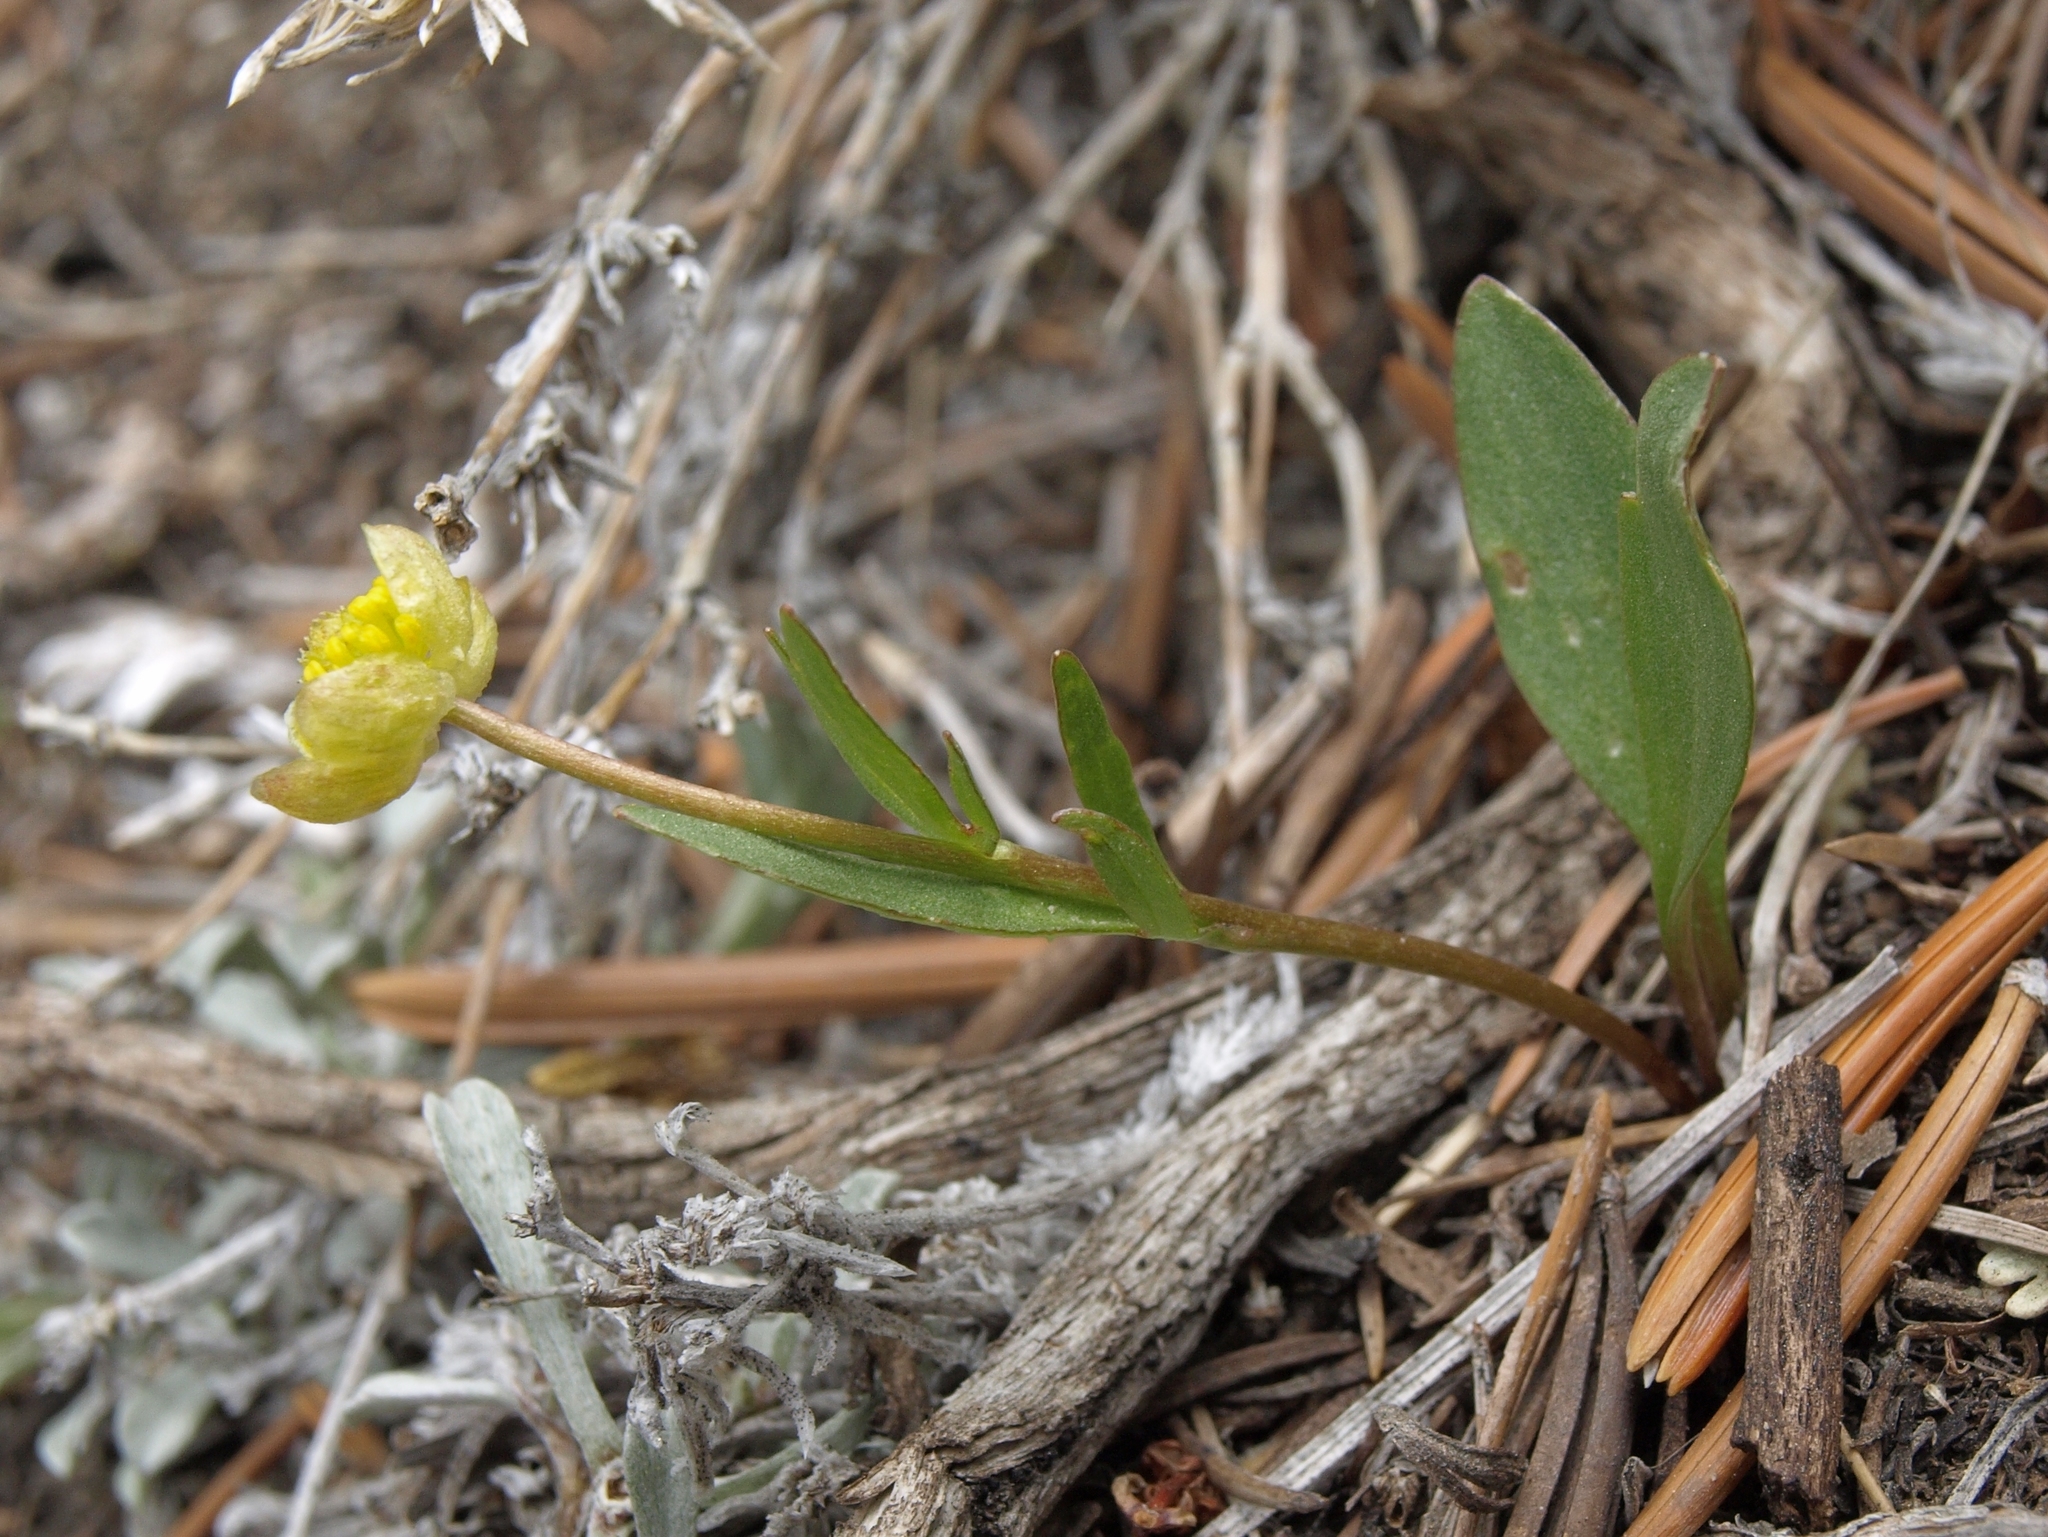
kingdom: Plantae
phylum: Tracheophyta
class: Magnoliopsida
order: Ranunculales
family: Ranunculaceae
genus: Ranunculus
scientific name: Ranunculus glaberrimus
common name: Sagebrush buttercup
